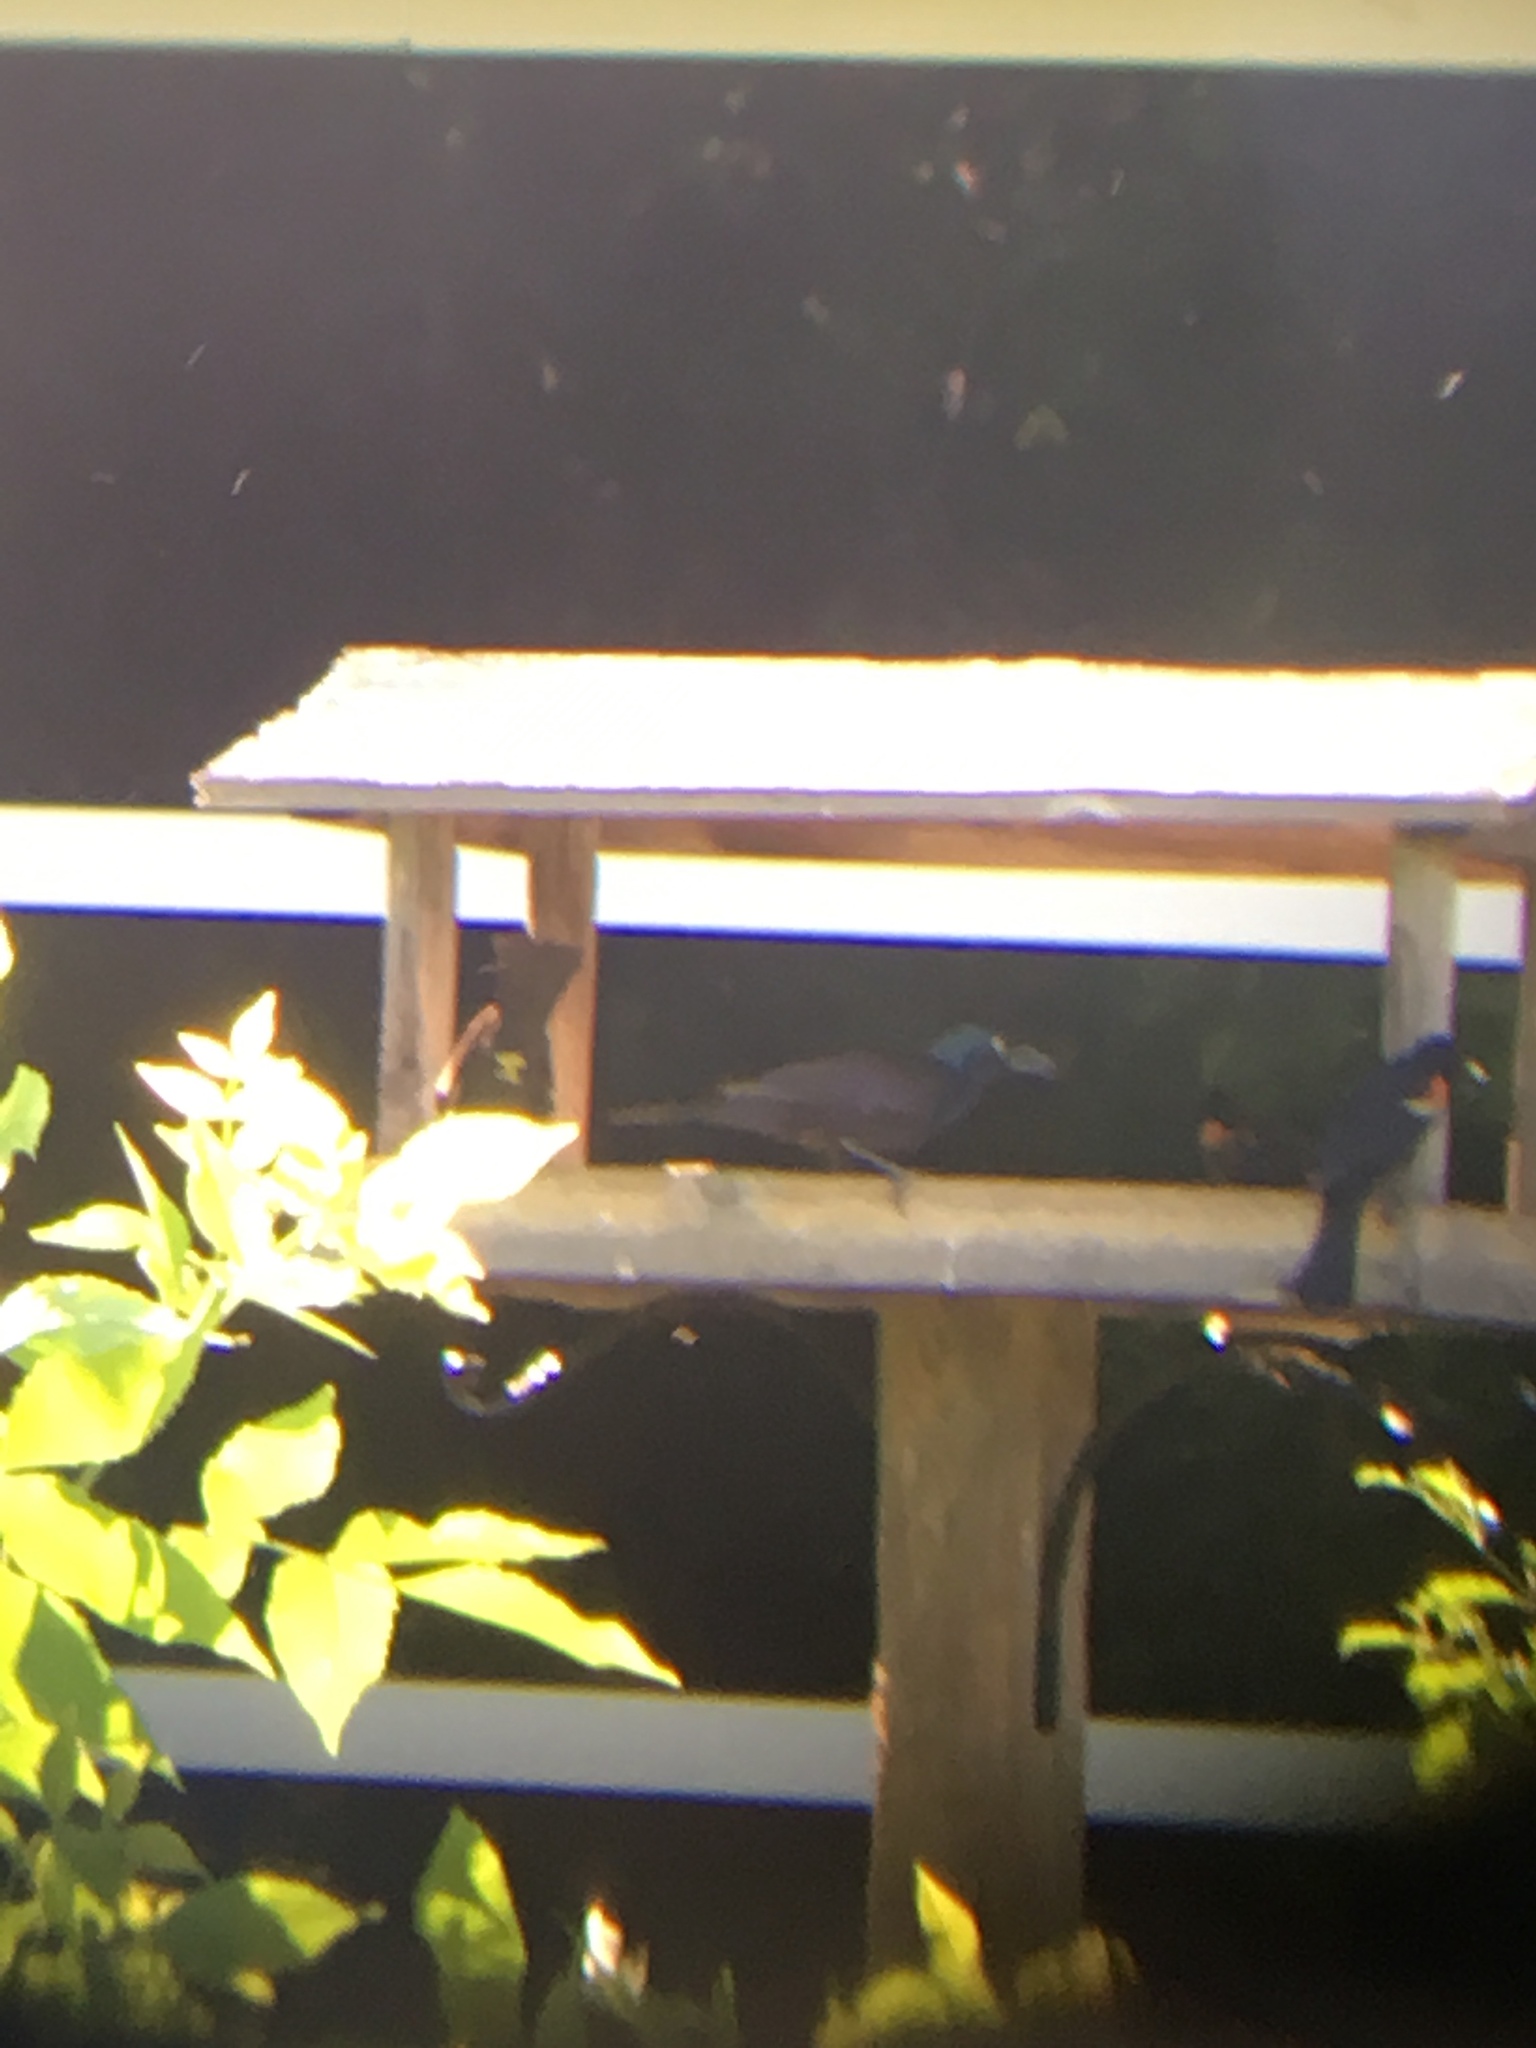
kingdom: Animalia
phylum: Chordata
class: Aves
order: Passeriformes
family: Icteridae
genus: Quiscalus
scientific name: Quiscalus quiscula
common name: Common grackle
